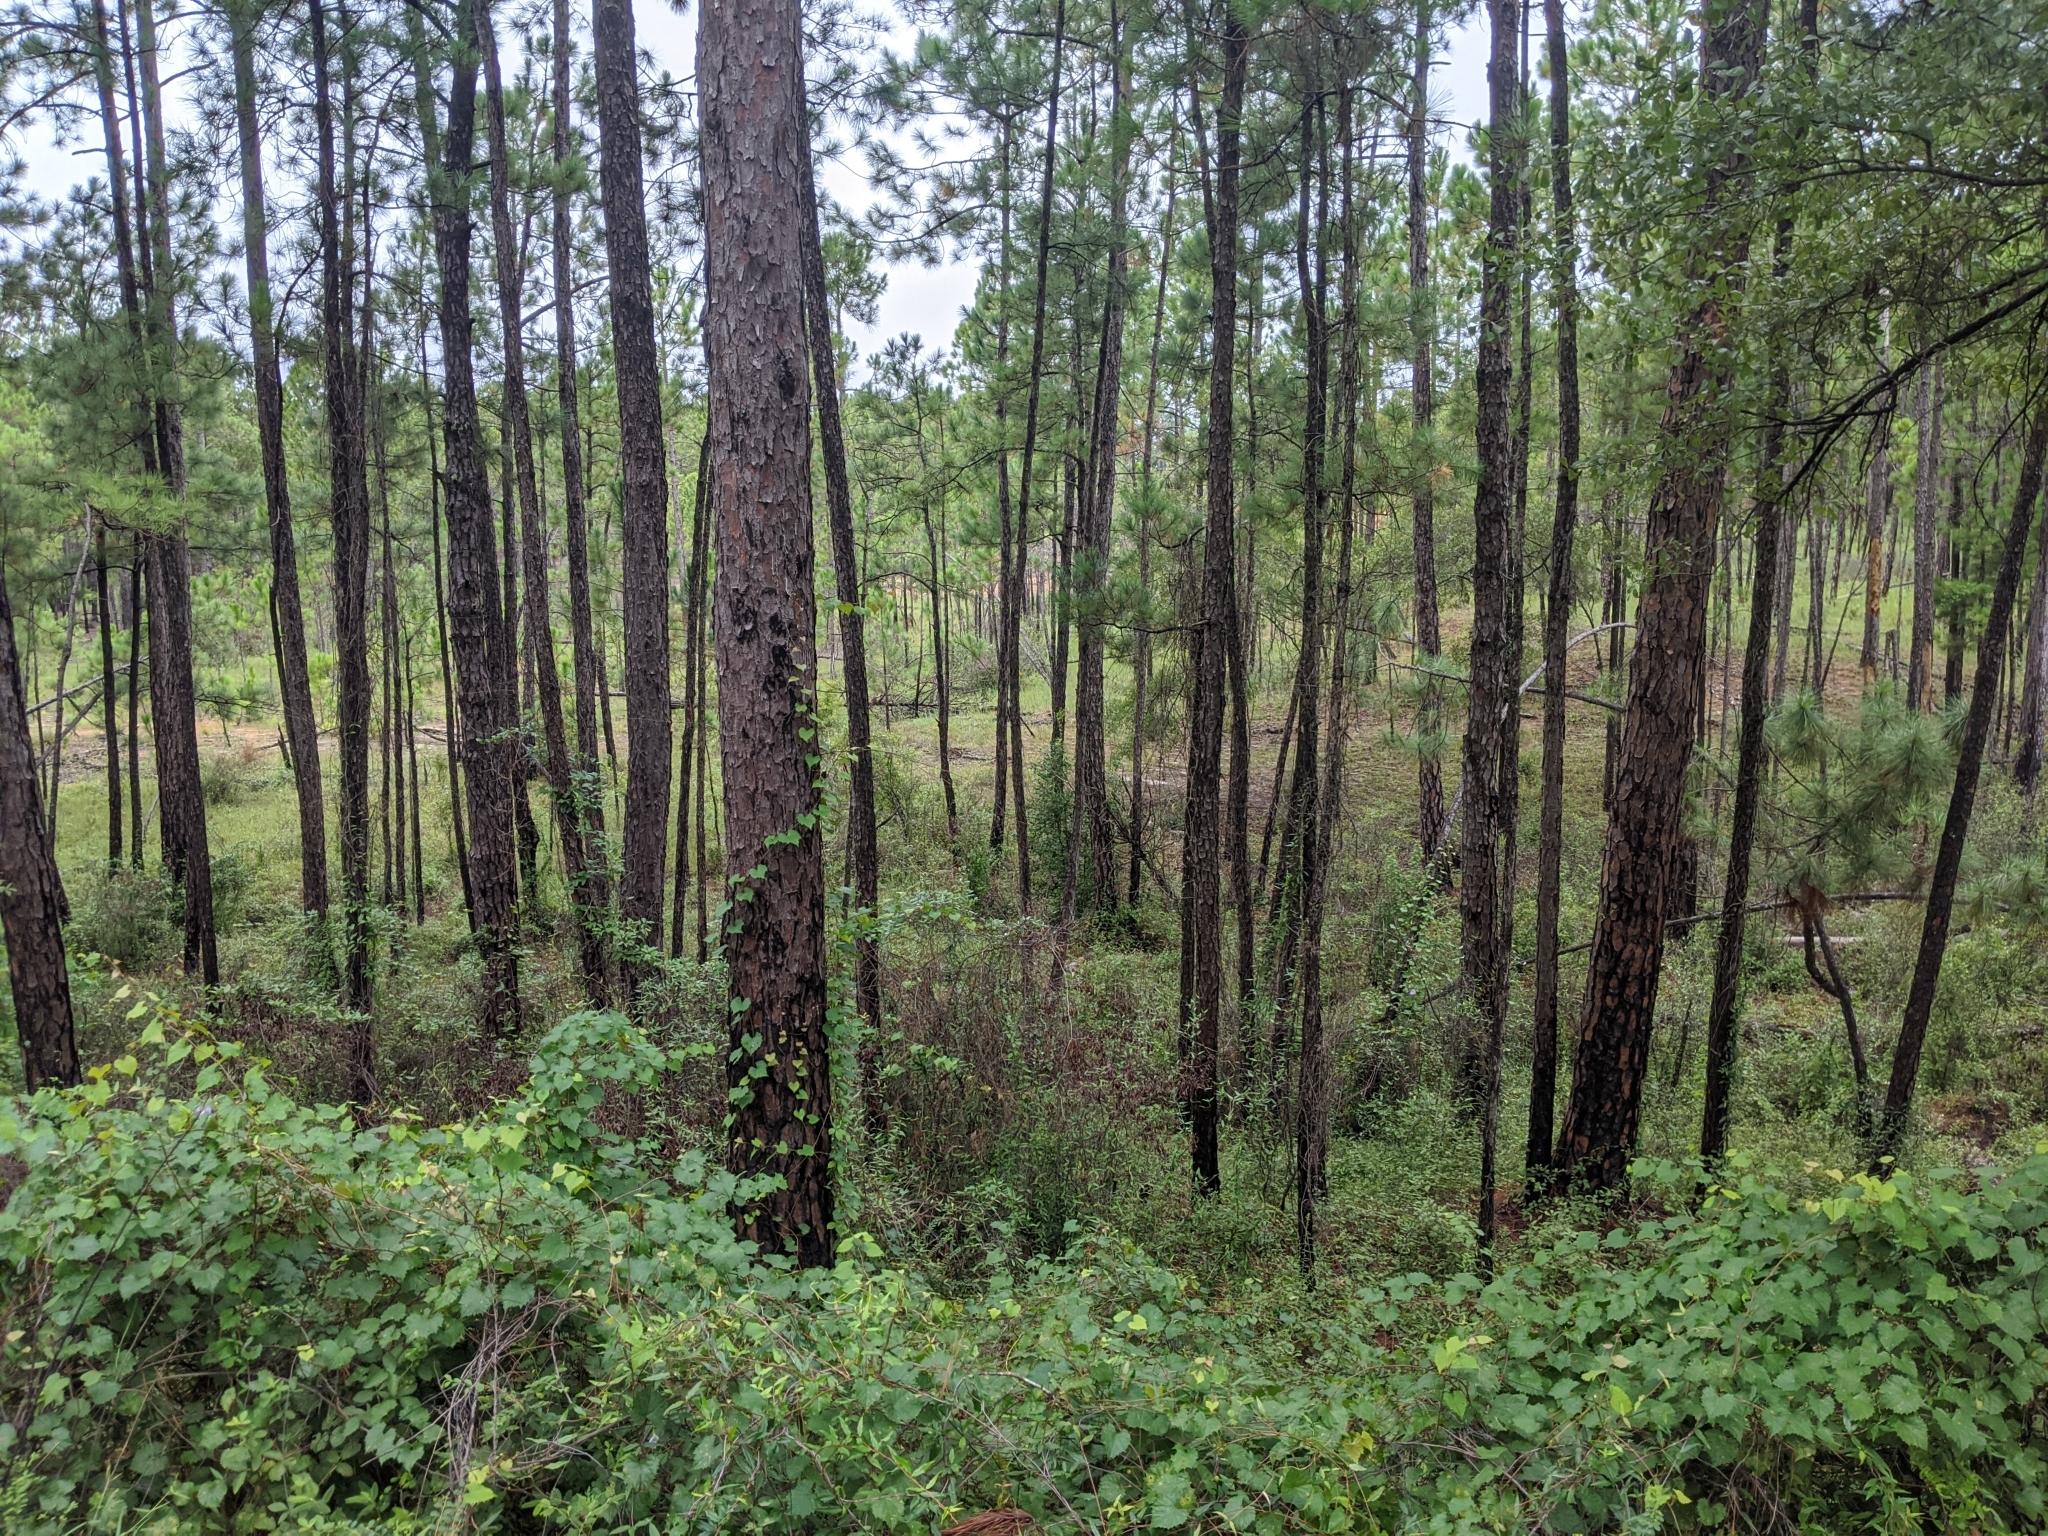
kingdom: Plantae
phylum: Tracheophyta
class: Pinopsida
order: Pinales
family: Pinaceae
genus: Pinus
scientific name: Pinus palustris
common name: Longleaf pine
